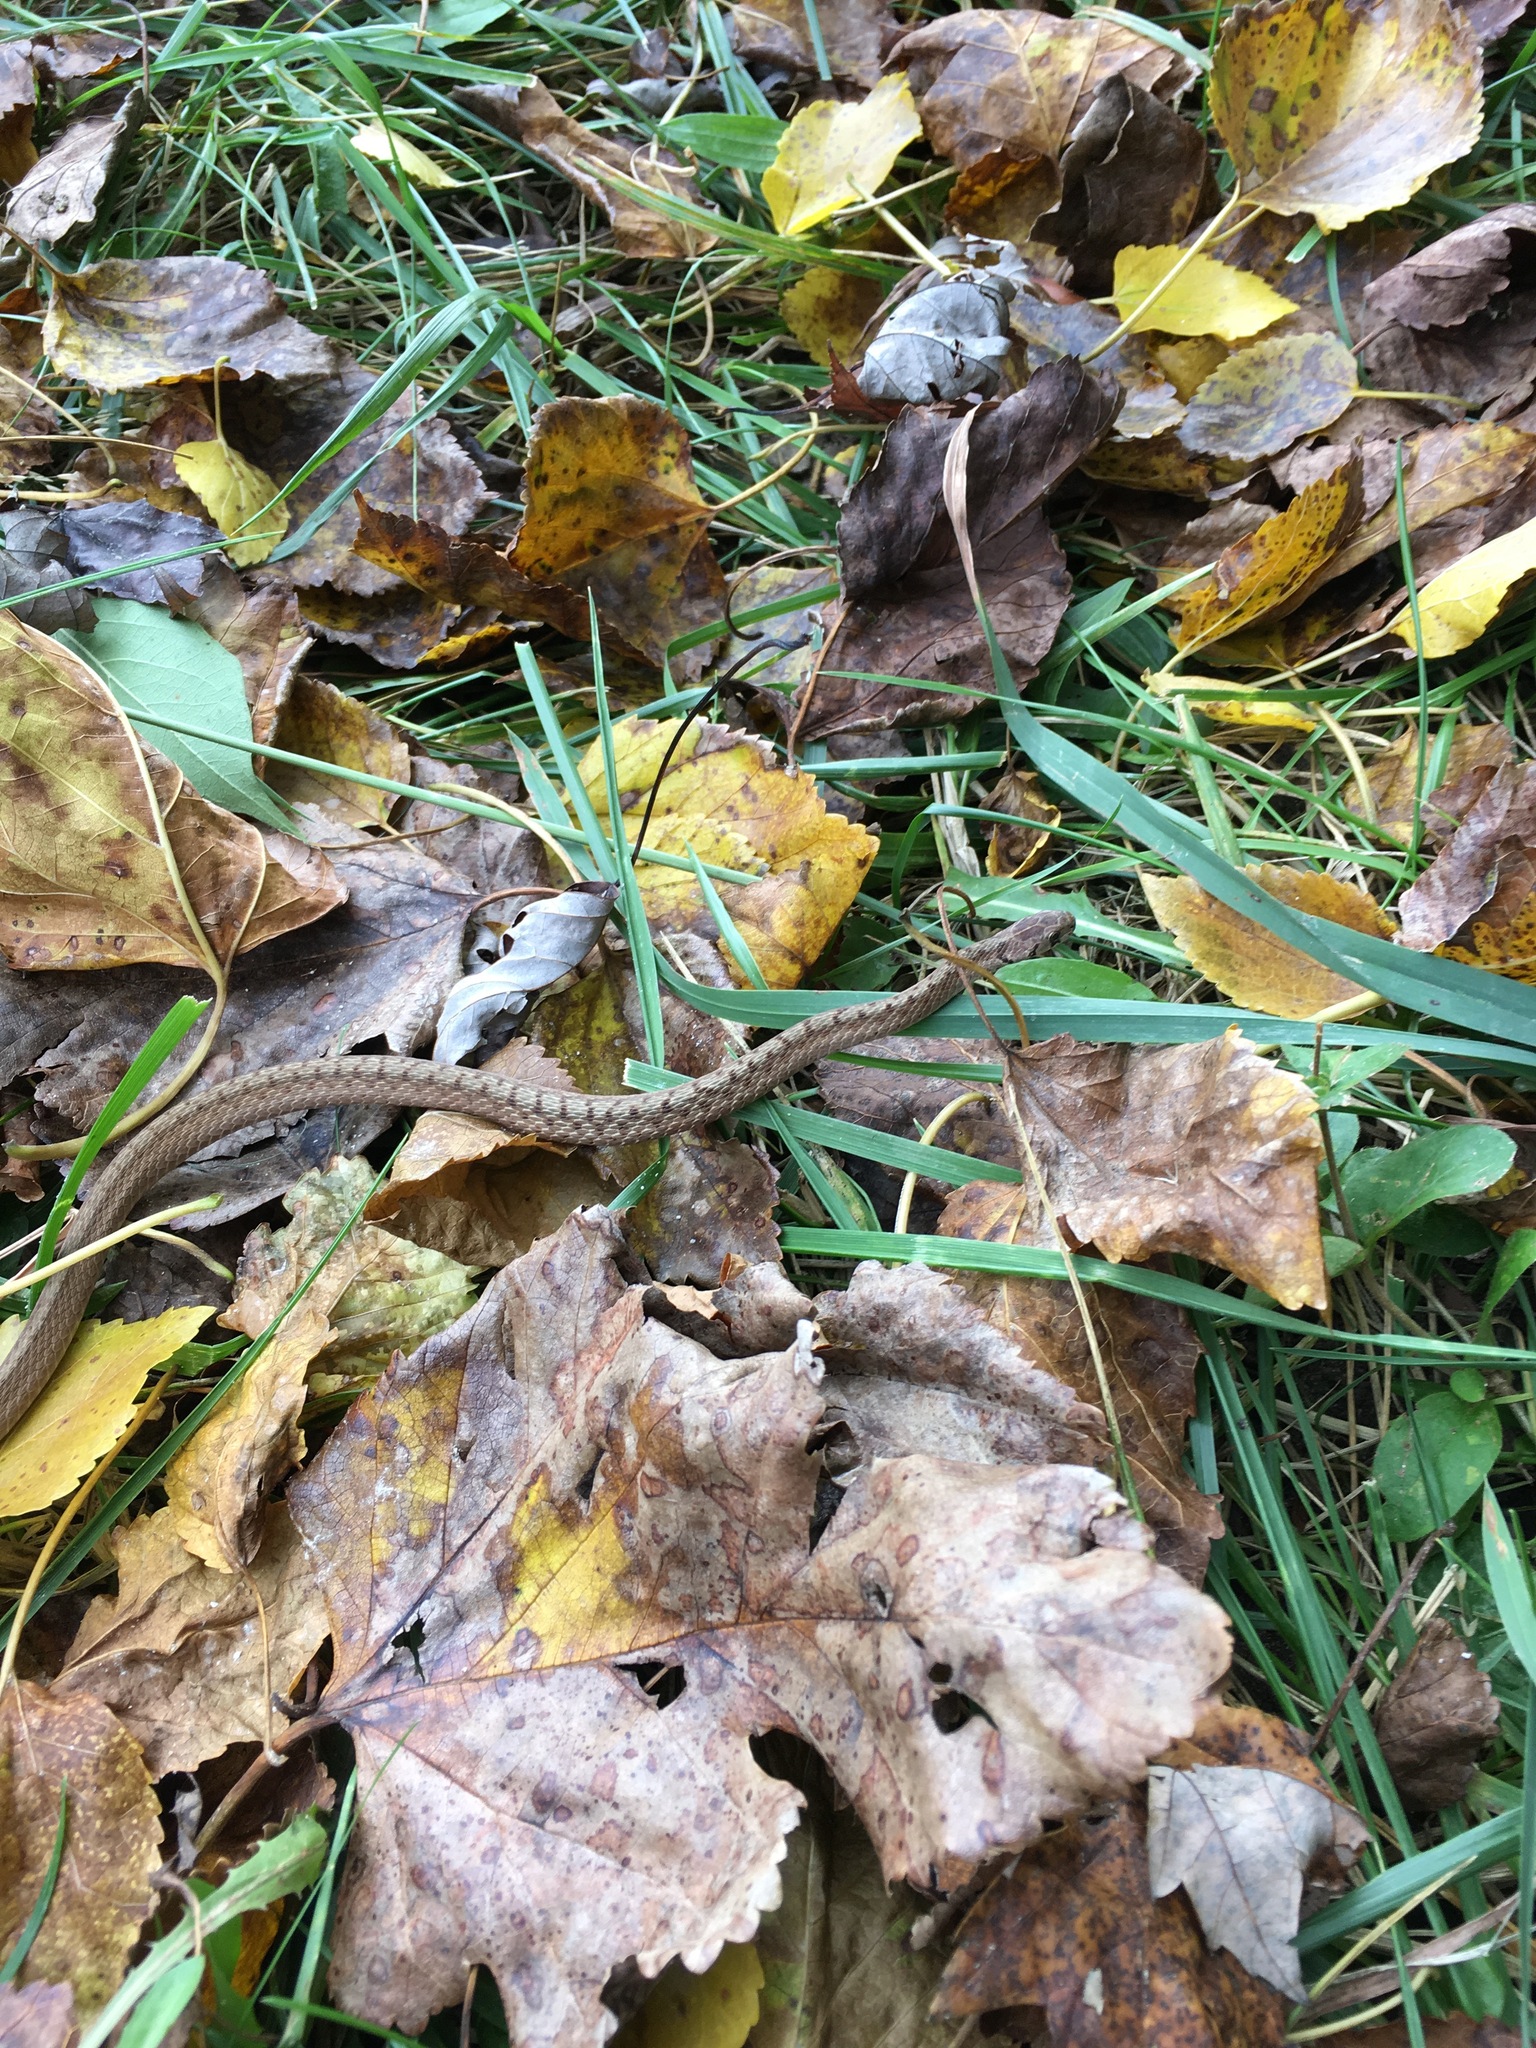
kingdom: Animalia
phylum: Chordata
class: Squamata
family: Colubridae
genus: Storeria
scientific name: Storeria dekayi
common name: (dekay’s) brown snake
